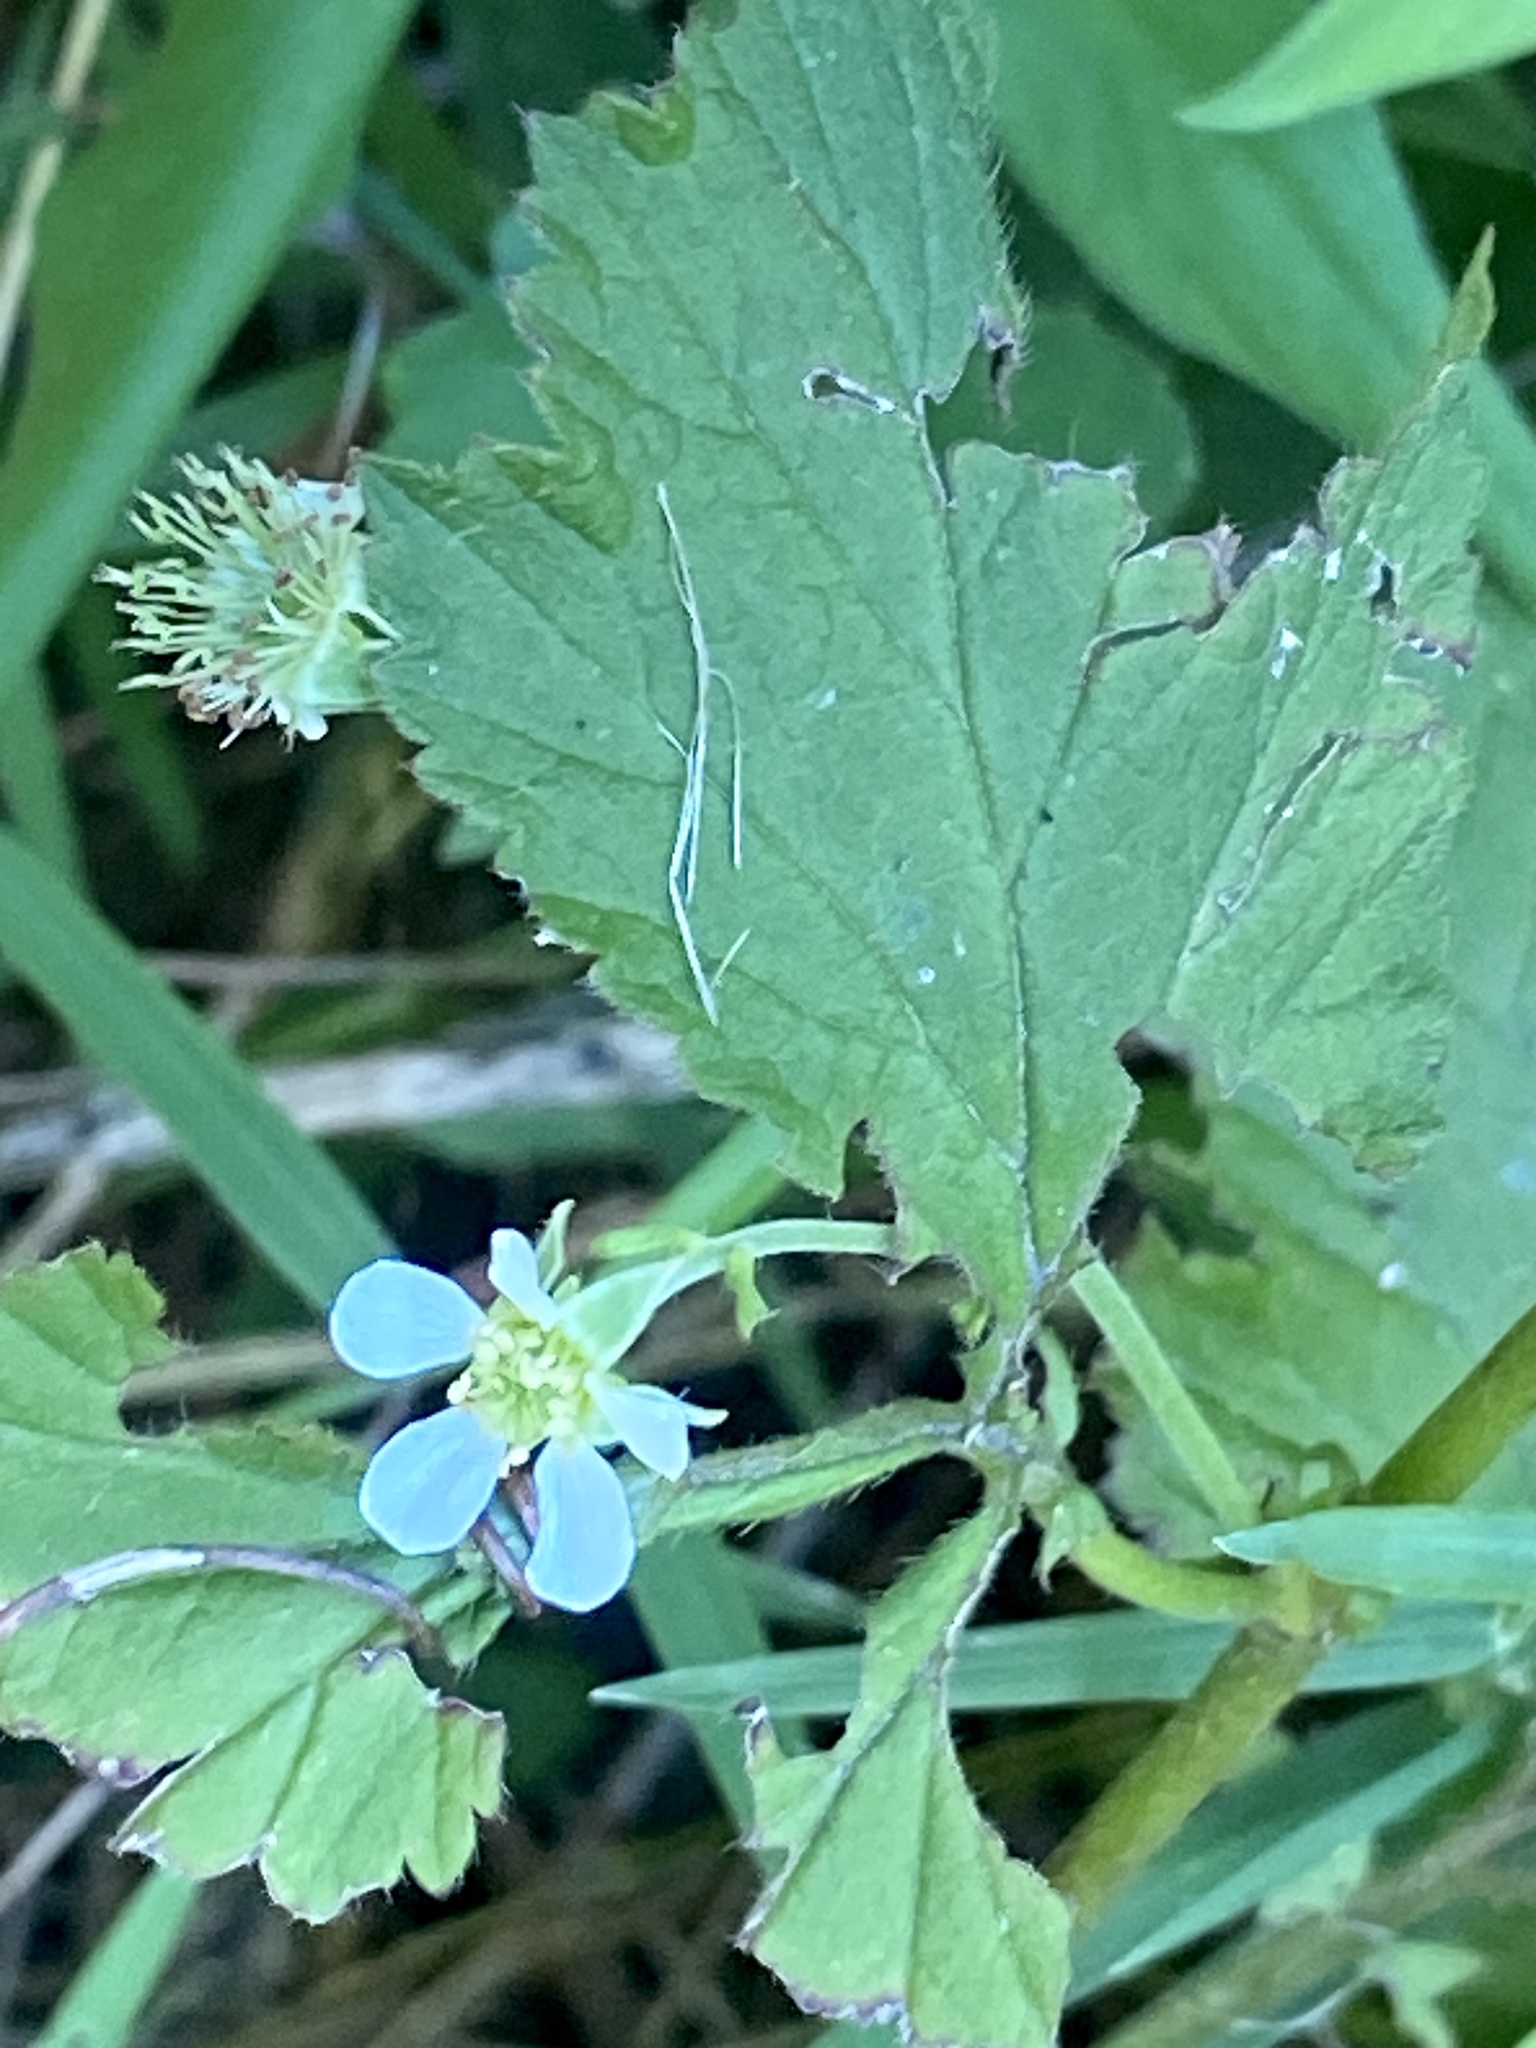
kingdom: Plantae
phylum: Tracheophyta
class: Magnoliopsida
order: Rosales
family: Rosaceae
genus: Geum
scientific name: Geum canadense
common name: White avens
